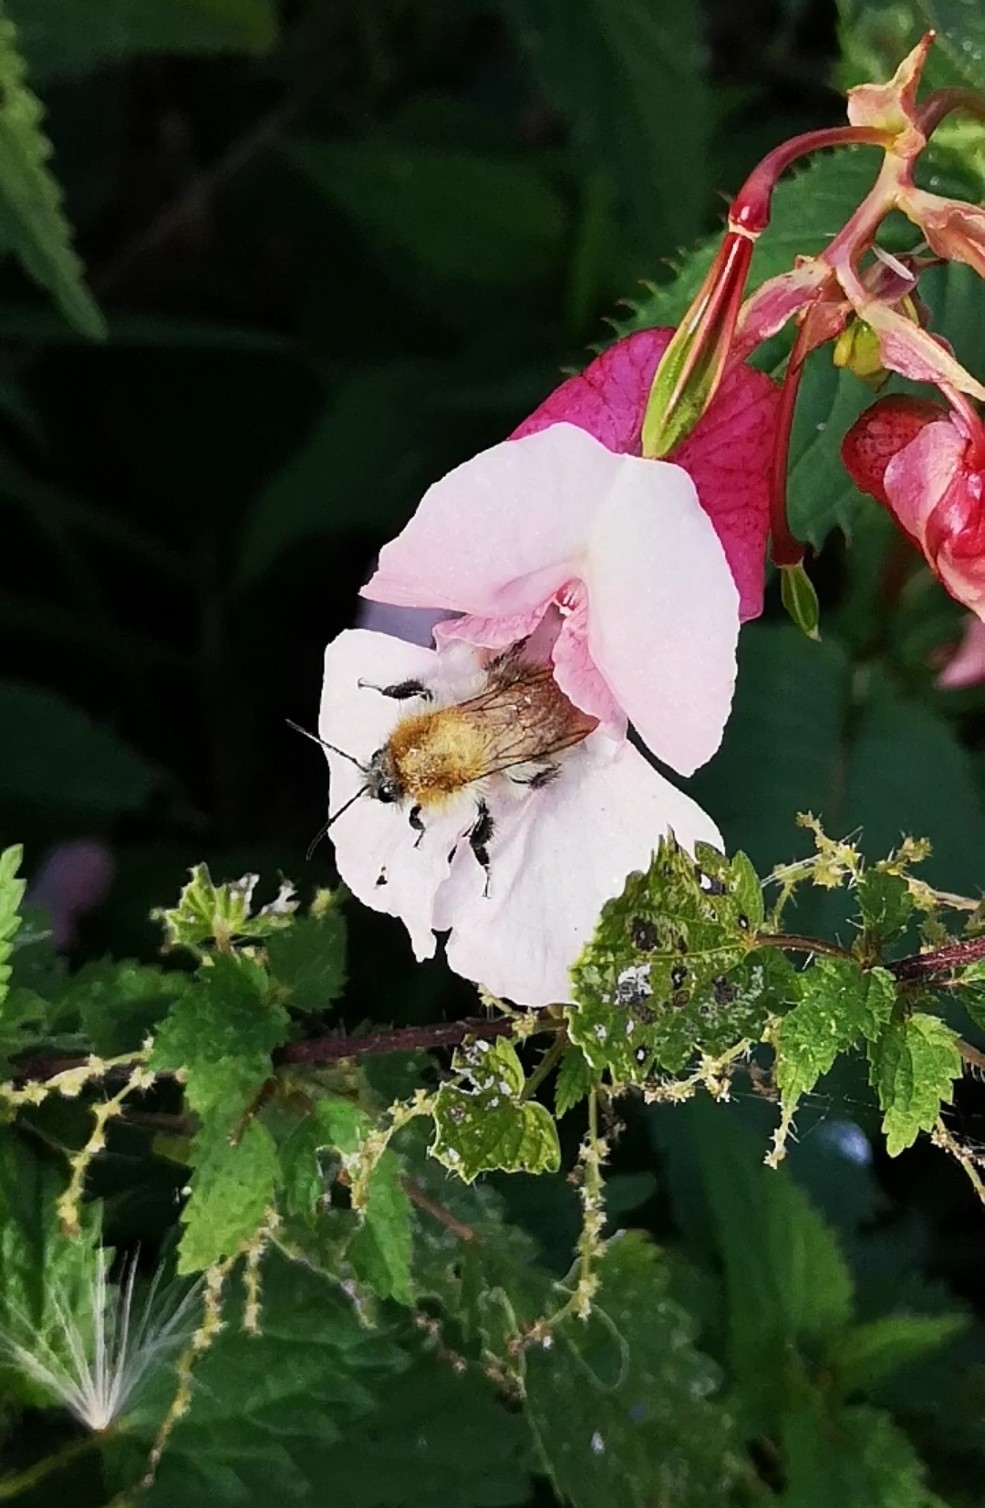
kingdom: Animalia
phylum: Arthropoda
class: Insecta
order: Hymenoptera
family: Apidae
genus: Bombus
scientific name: Bombus pascuorum
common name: Common carder bee
